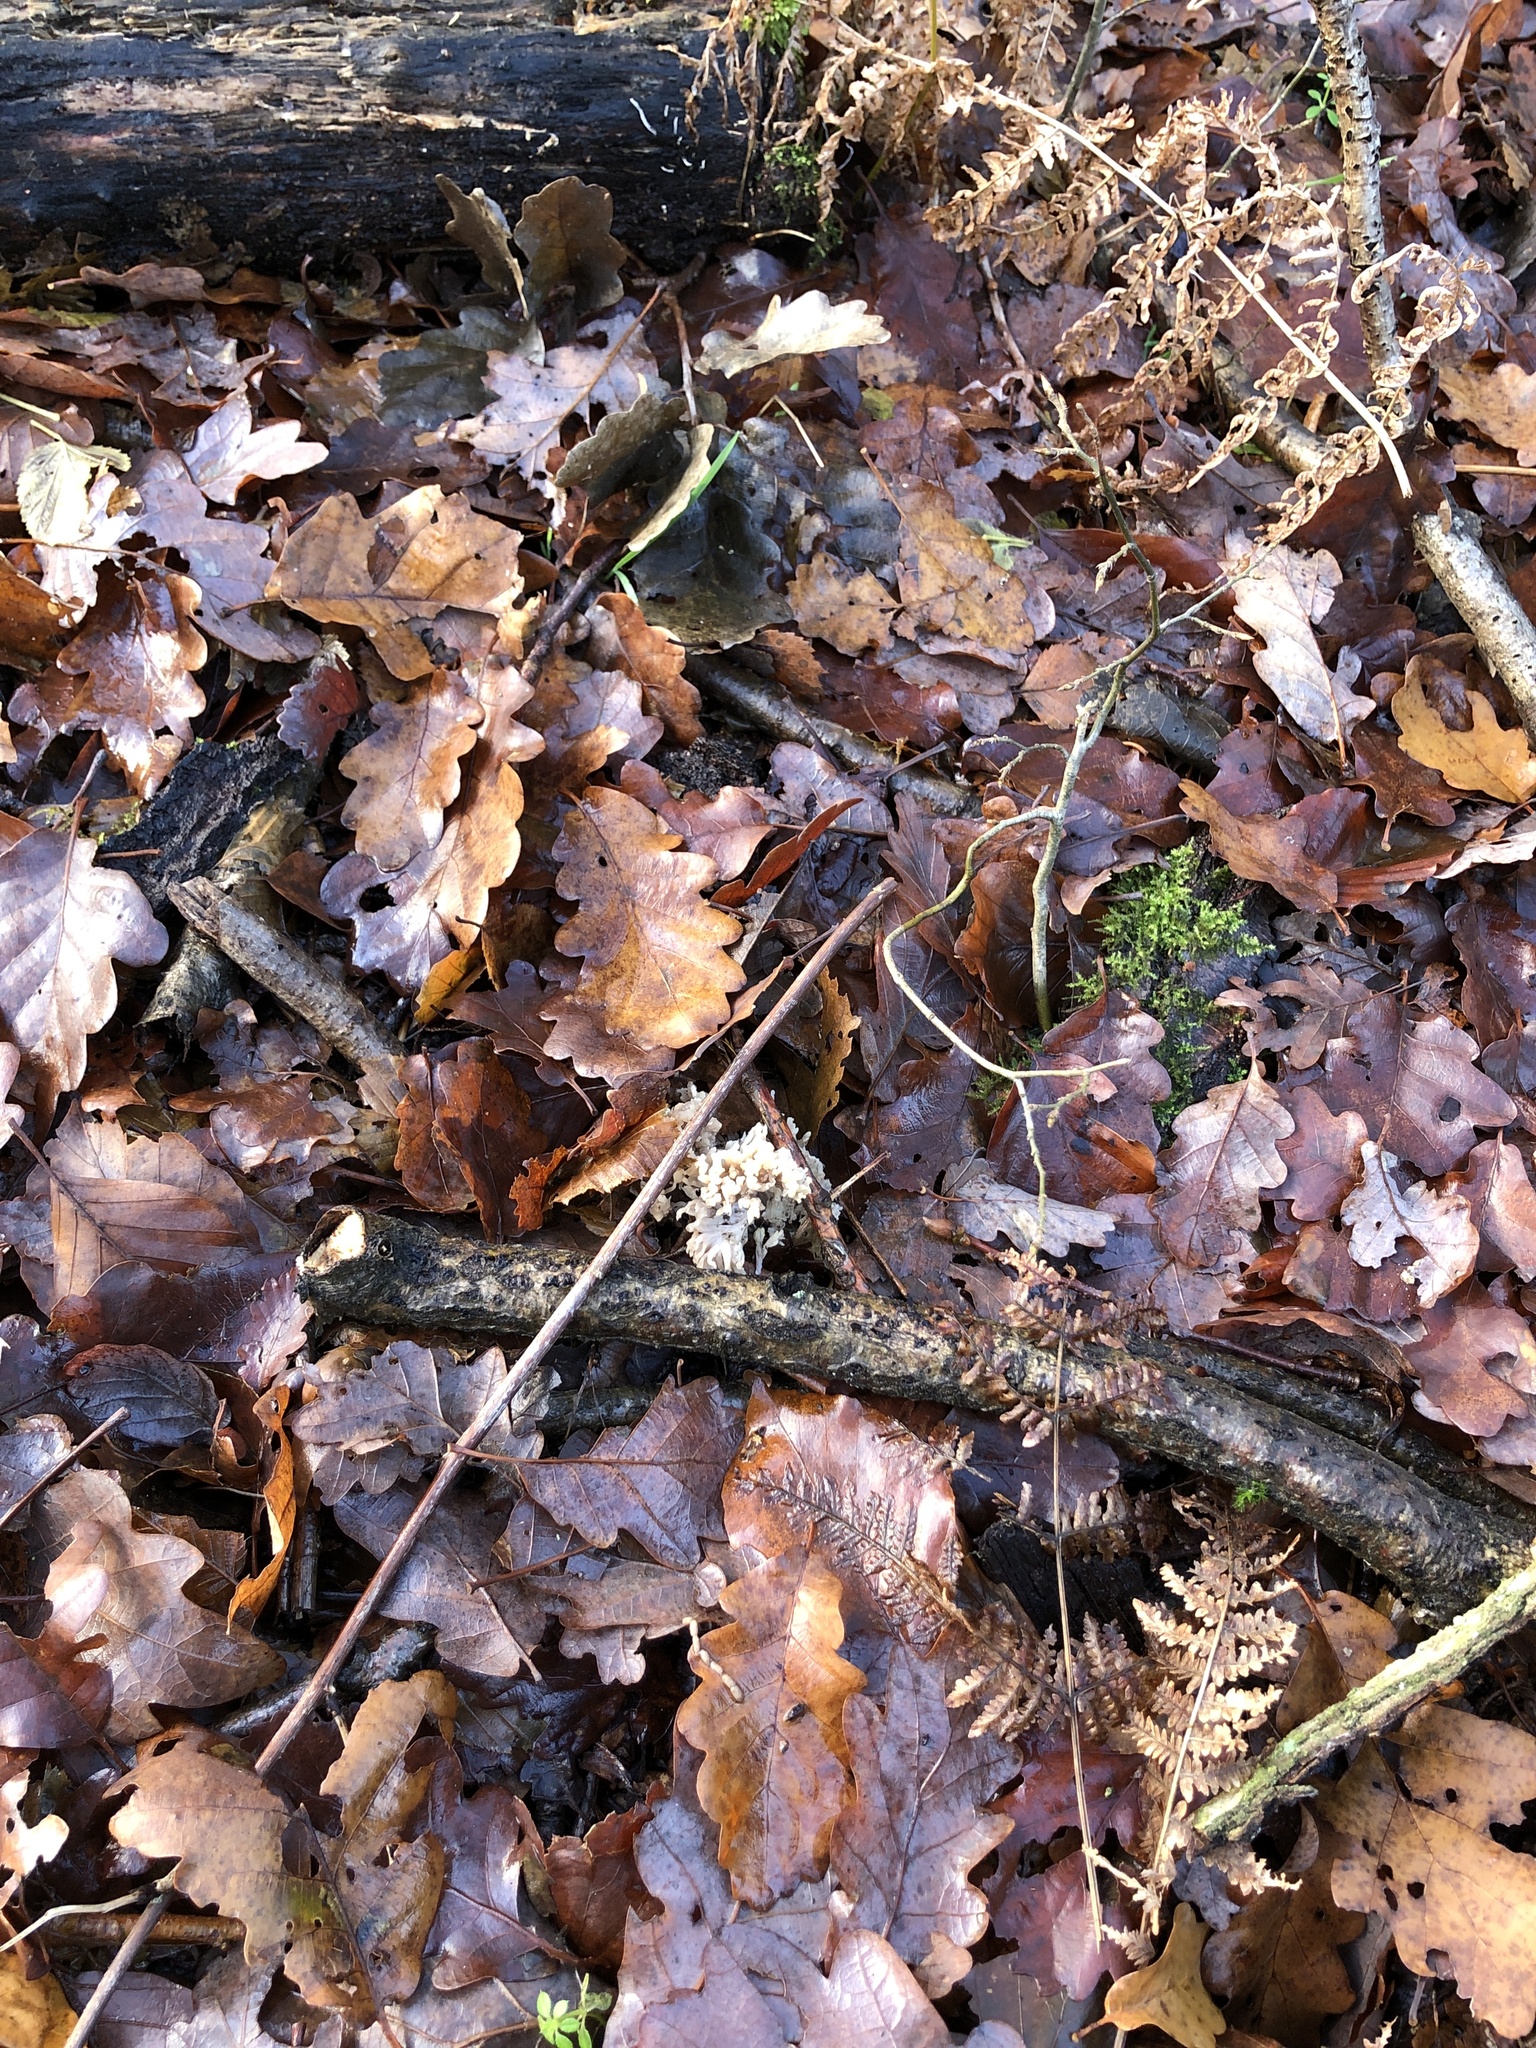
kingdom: Fungi
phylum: Basidiomycota
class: Agaricomycetes
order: Cantharellales
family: Hydnaceae
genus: Clavulina
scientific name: Clavulina rugosa
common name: Wrinkled club
